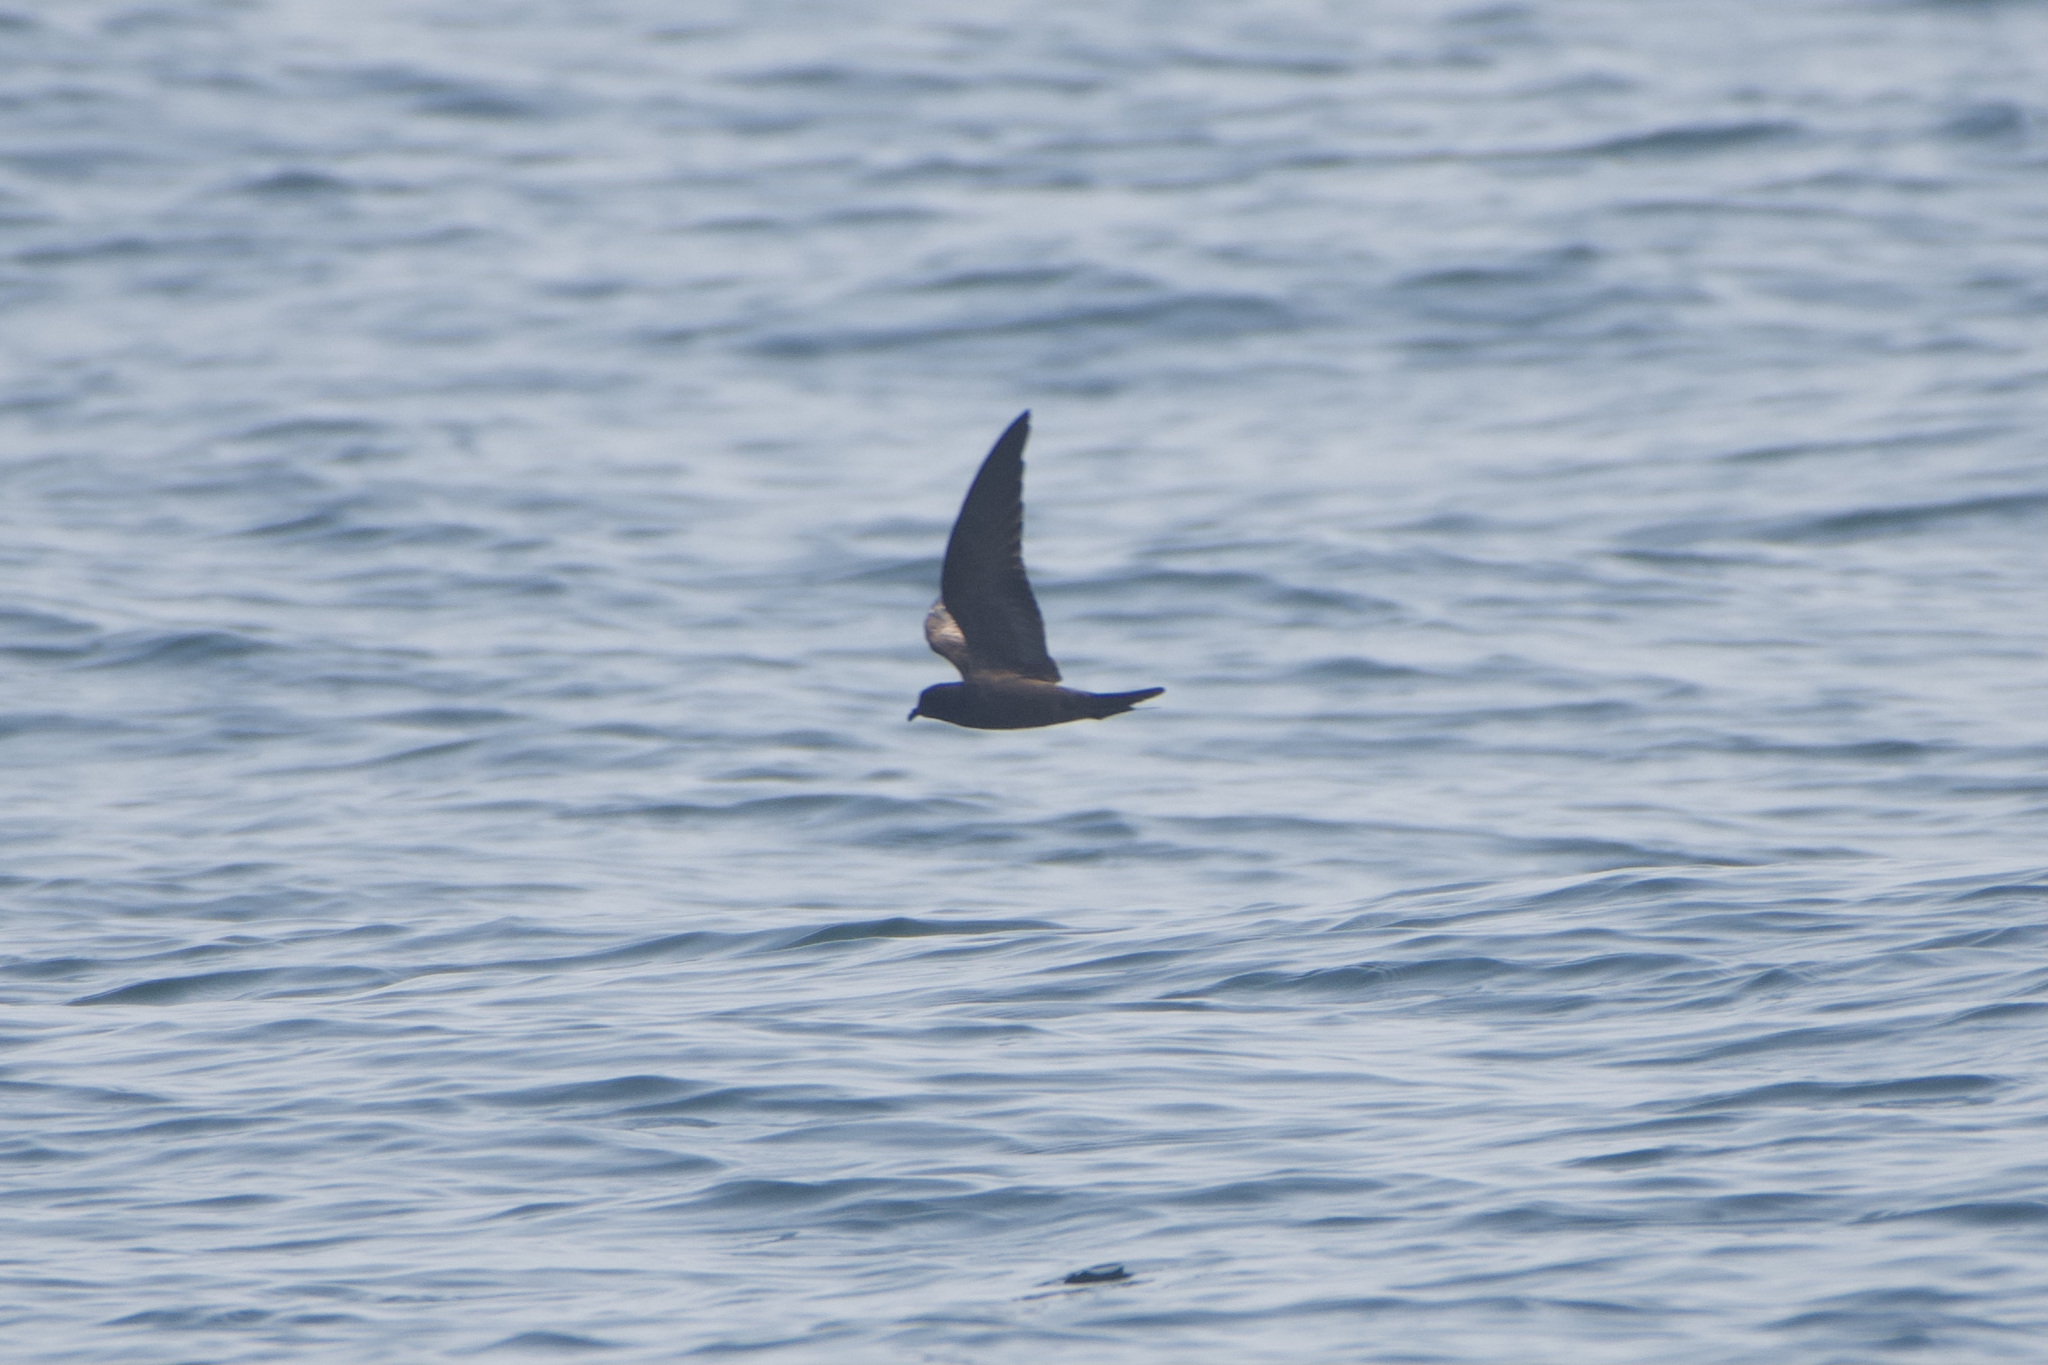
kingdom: Animalia
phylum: Chordata
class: Aves
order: Procellariiformes
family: Hydrobatidae
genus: Hydrobates
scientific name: Hydrobates melania
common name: Black storm petrel
